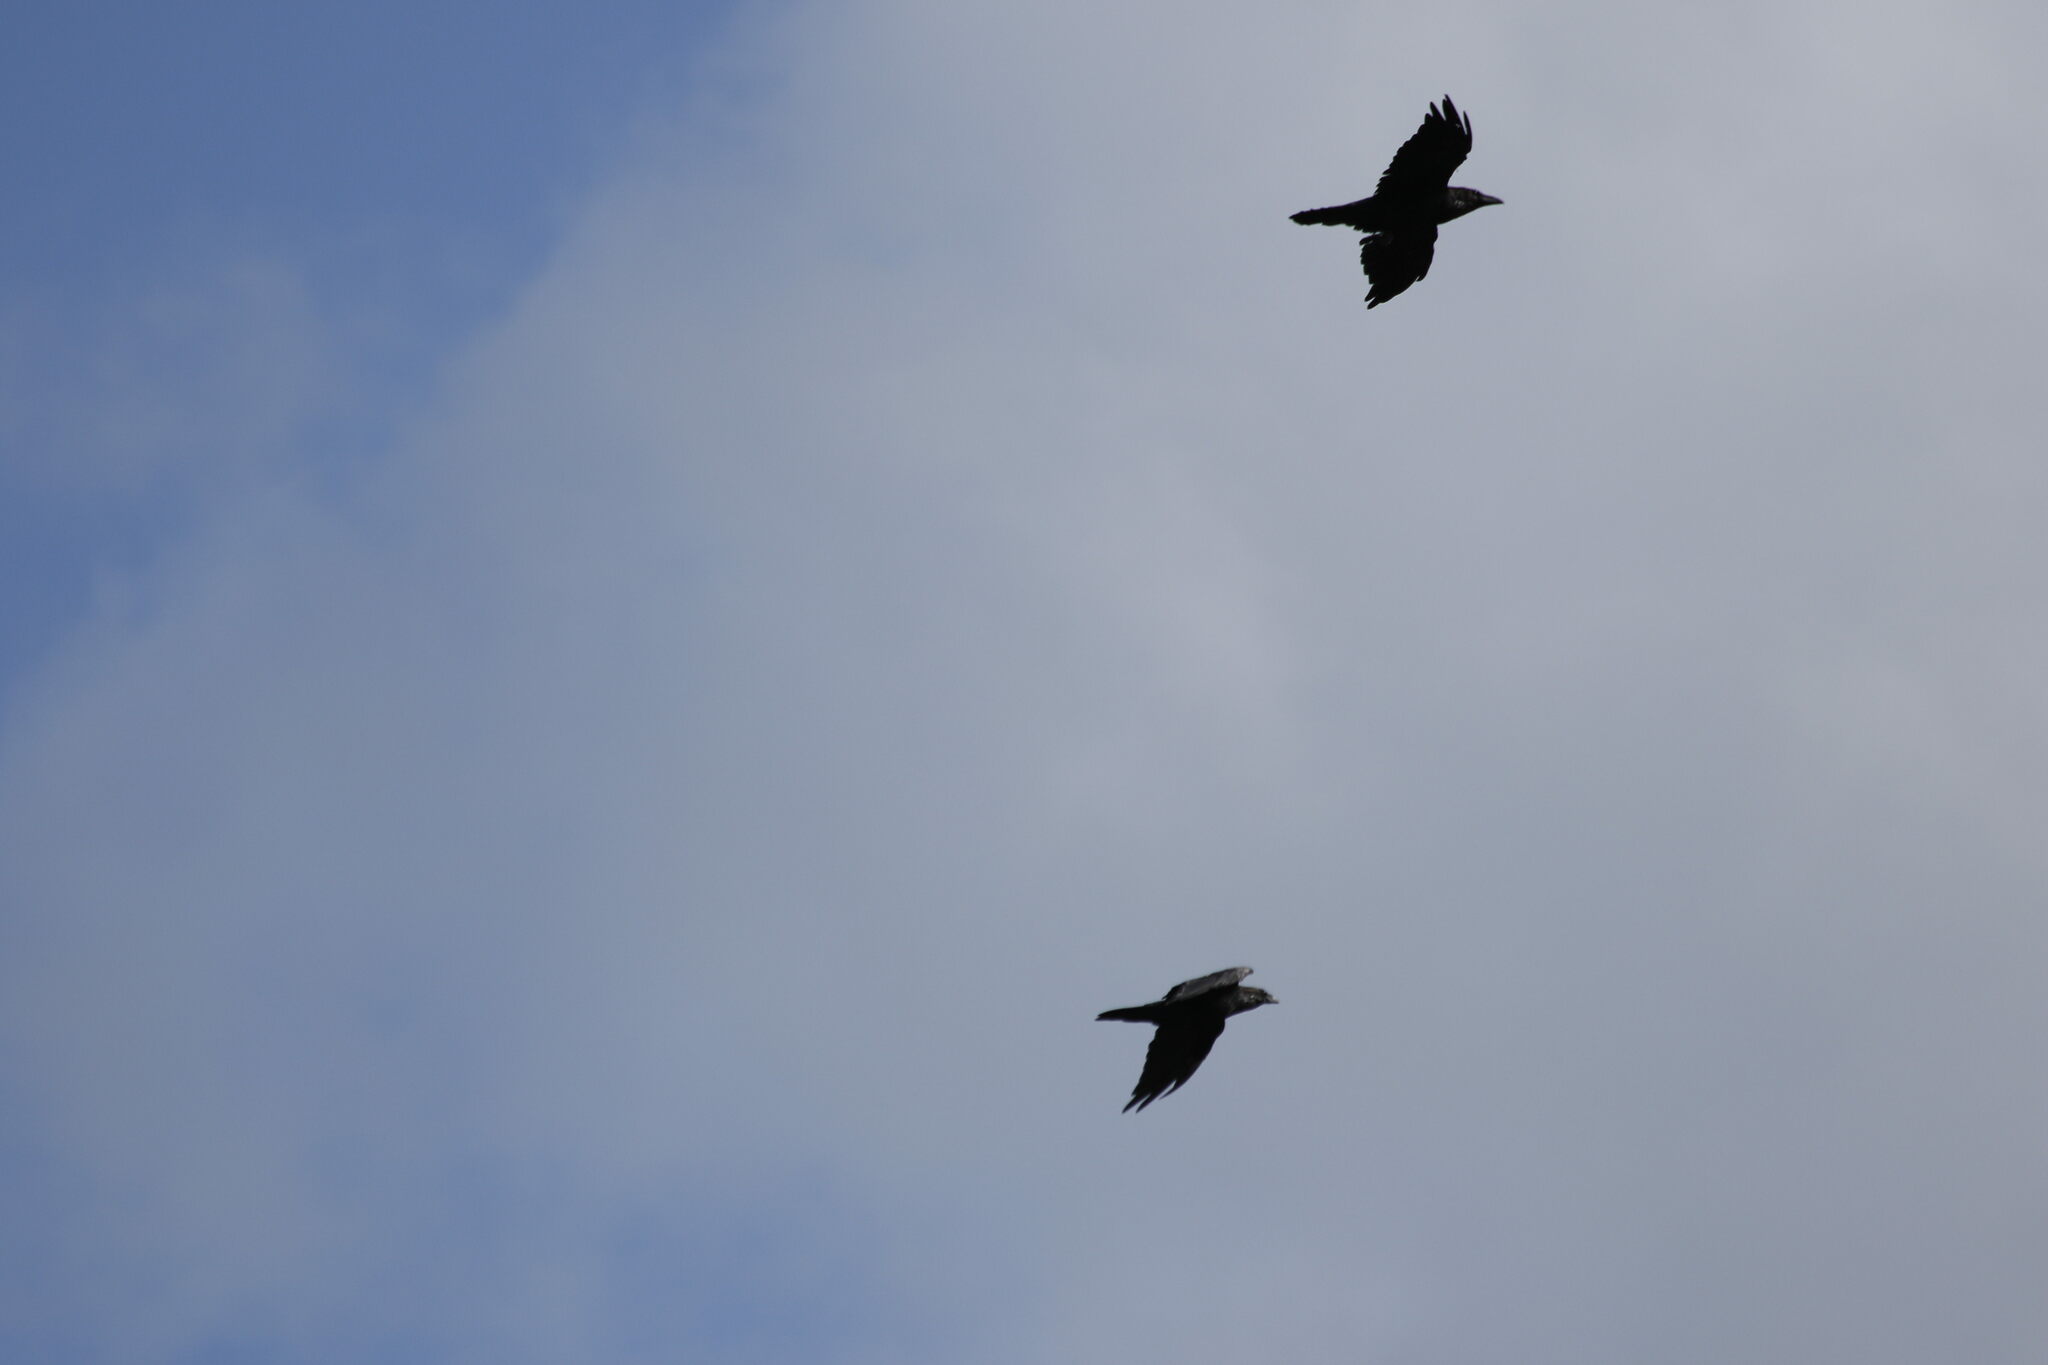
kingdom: Animalia
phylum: Chordata
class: Aves
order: Passeriformes
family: Corvidae
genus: Corvus
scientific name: Corvus corax
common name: Common raven
